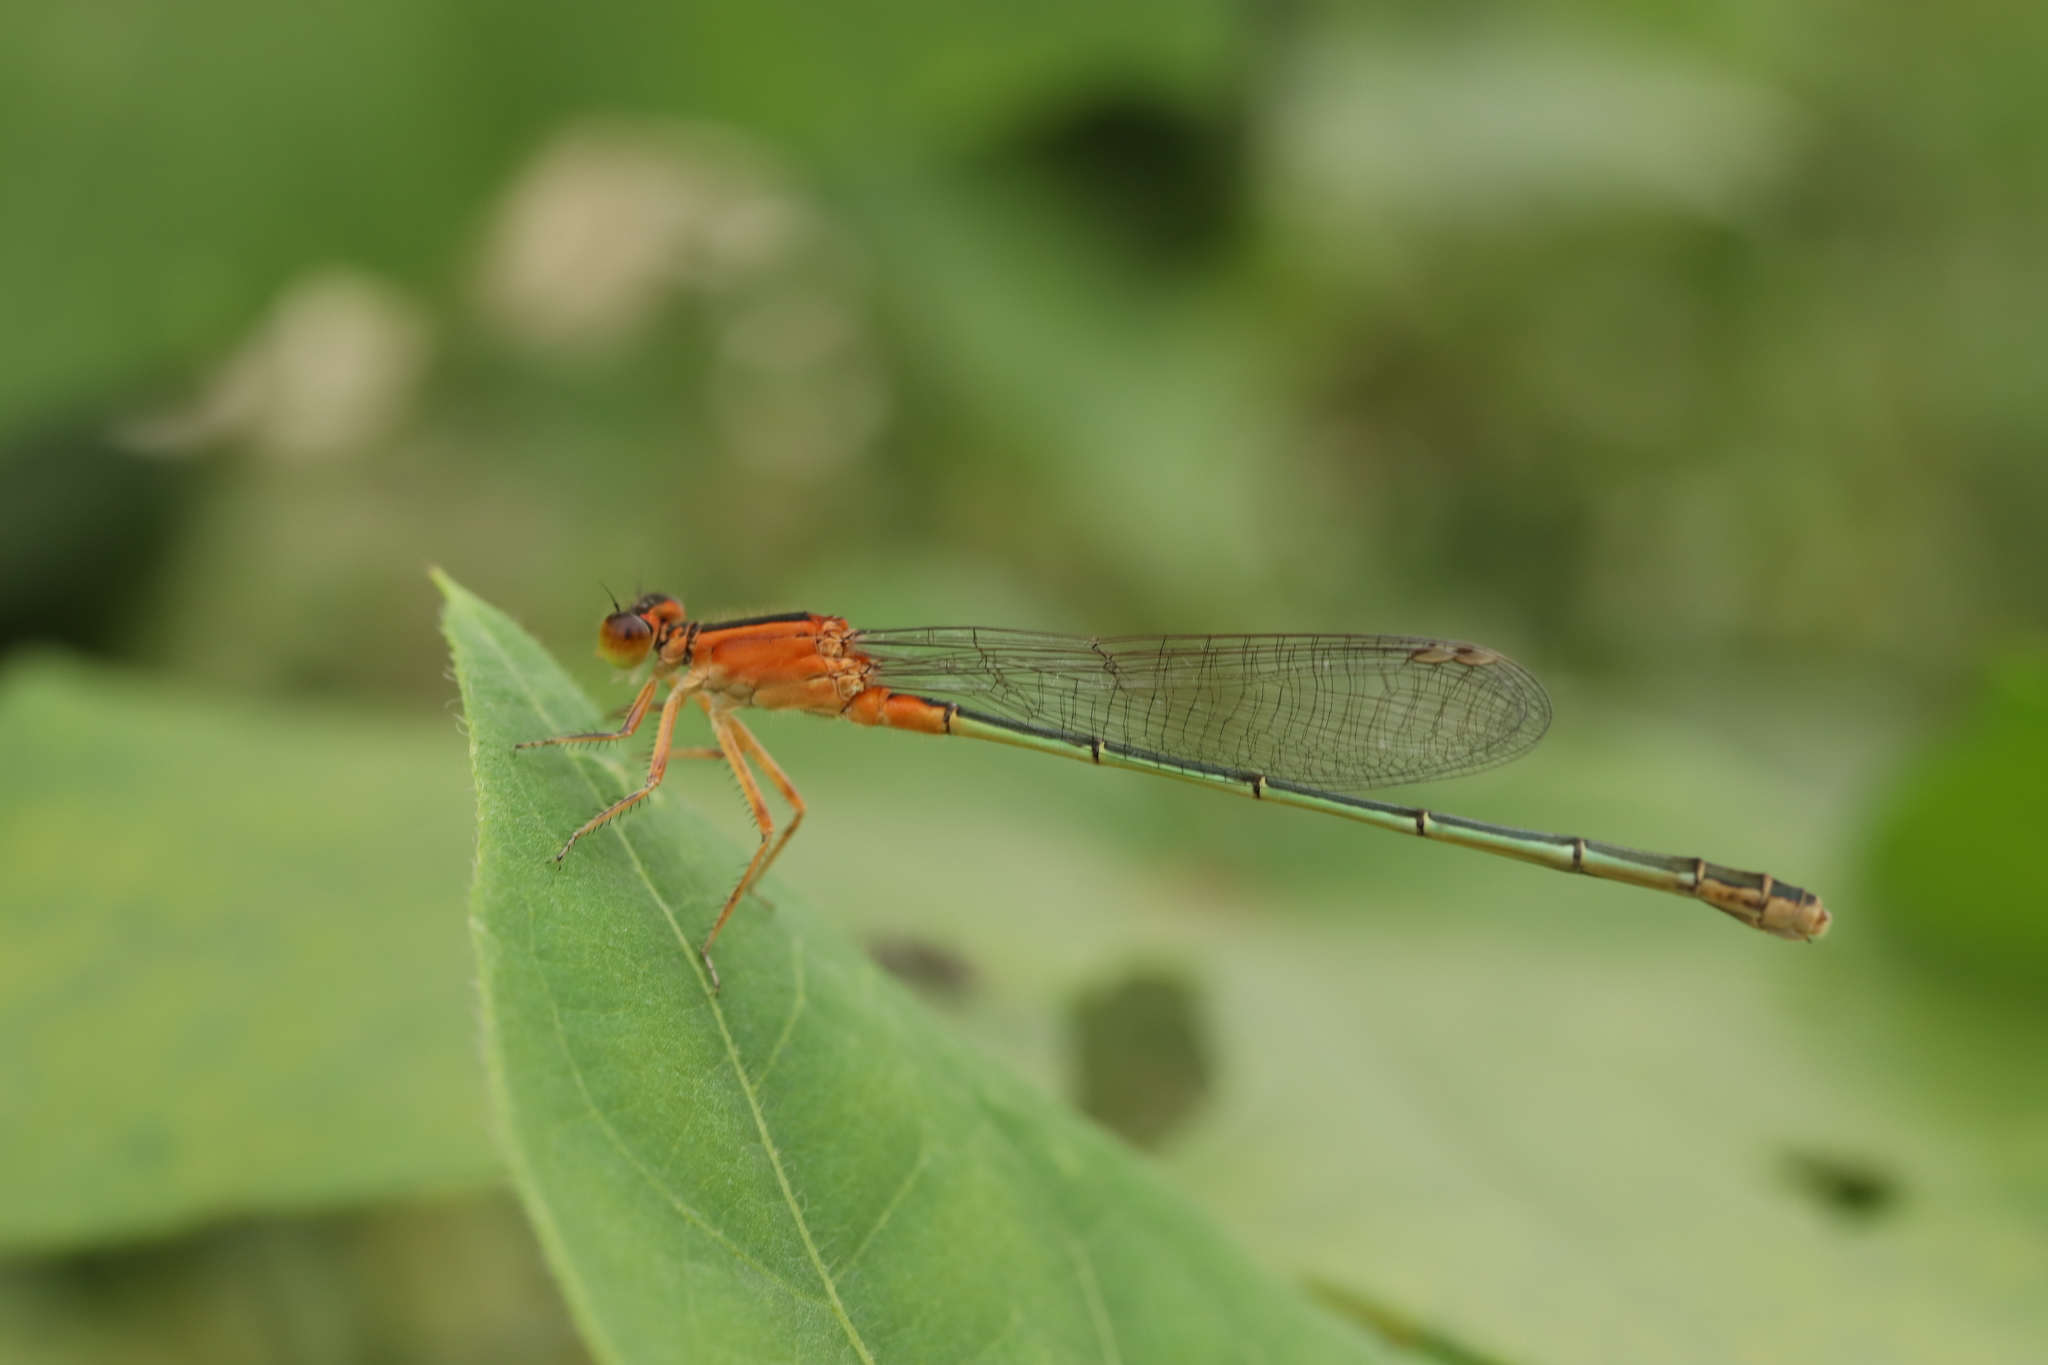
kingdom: Animalia
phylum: Arthropoda
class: Insecta
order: Odonata
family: Coenagrionidae
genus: Ischnura
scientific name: Ischnura senegalensis
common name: Tropical bluetail
